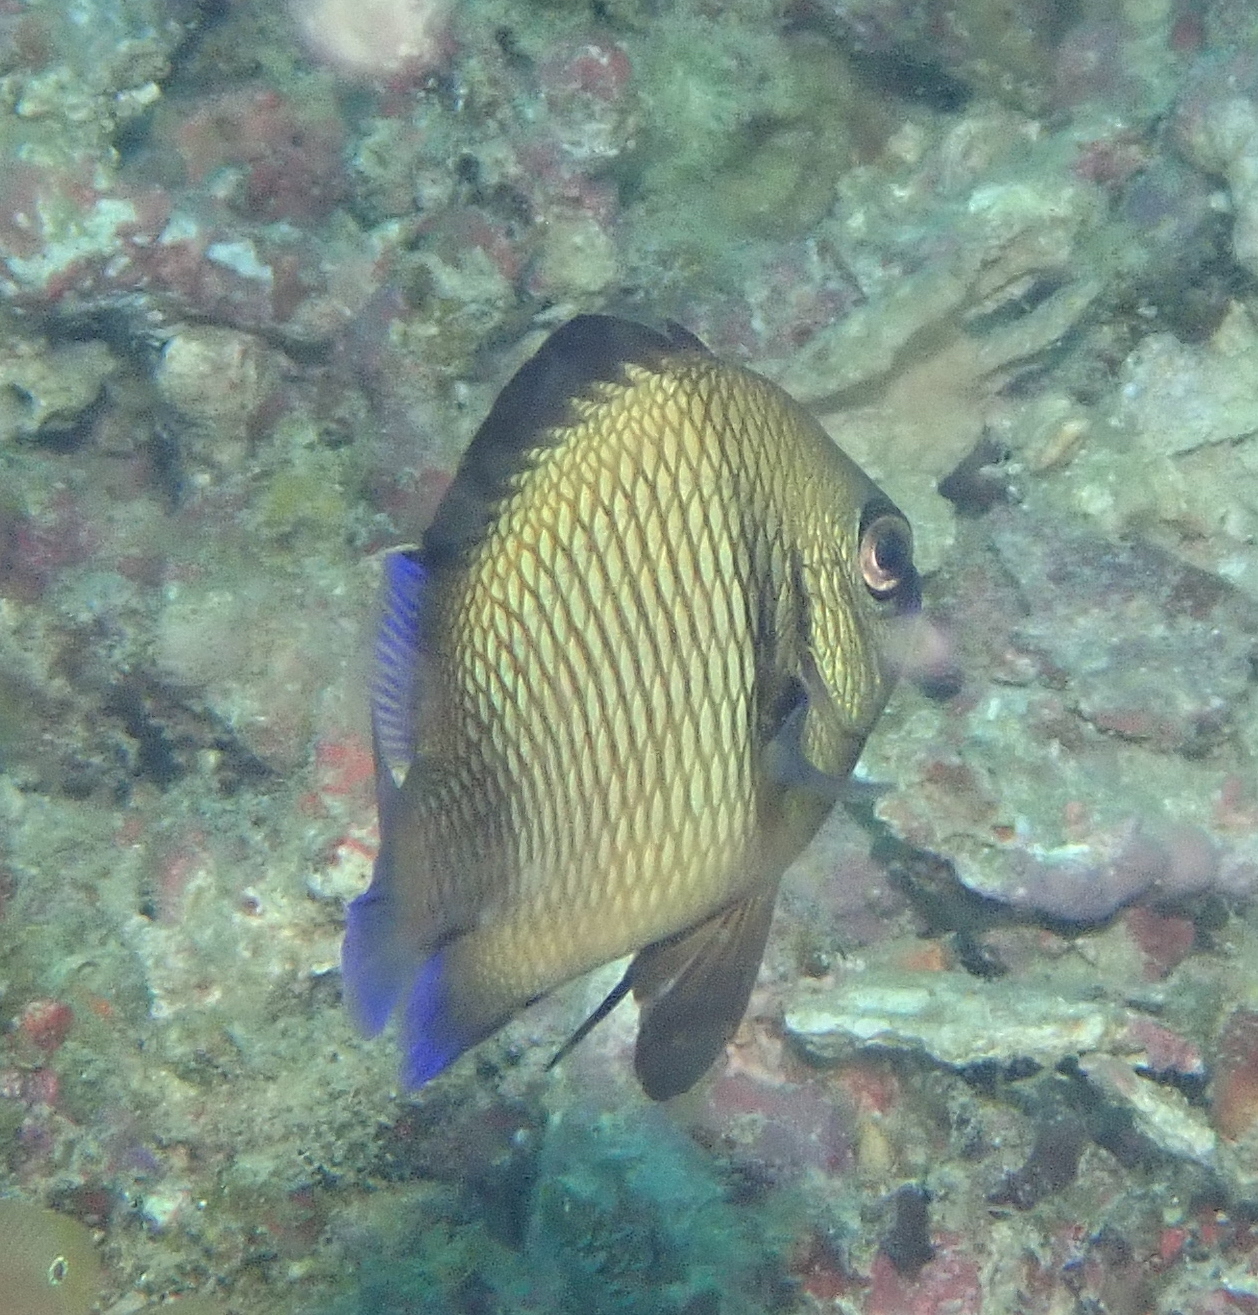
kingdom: Animalia
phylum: Chordata
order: Perciformes
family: Pomacentridae
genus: Dascyllus
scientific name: Dascyllus reticulatus
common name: Reticulated dascyllus
